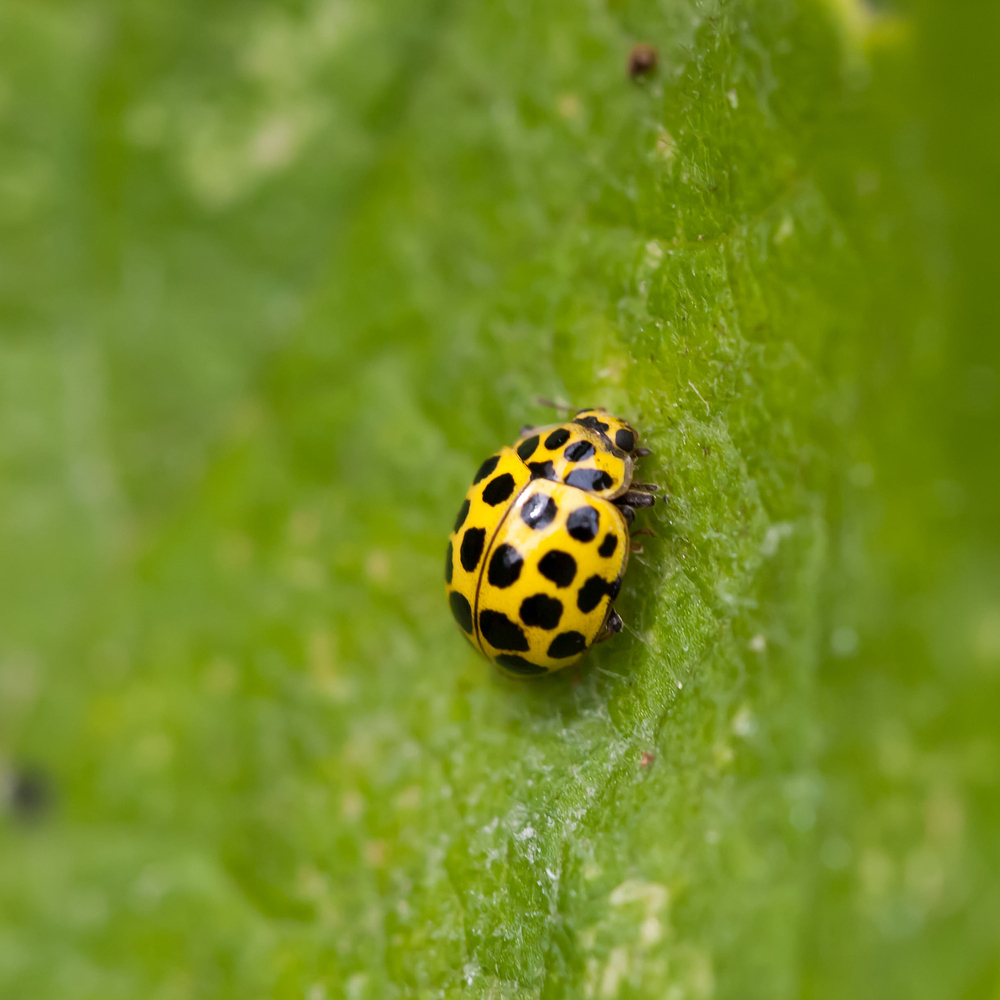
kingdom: Animalia
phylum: Arthropoda
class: Insecta
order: Coleoptera
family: Coccinellidae
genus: Psyllobora
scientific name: Psyllobora vigintiduopunctata
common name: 22-spot ladybird
